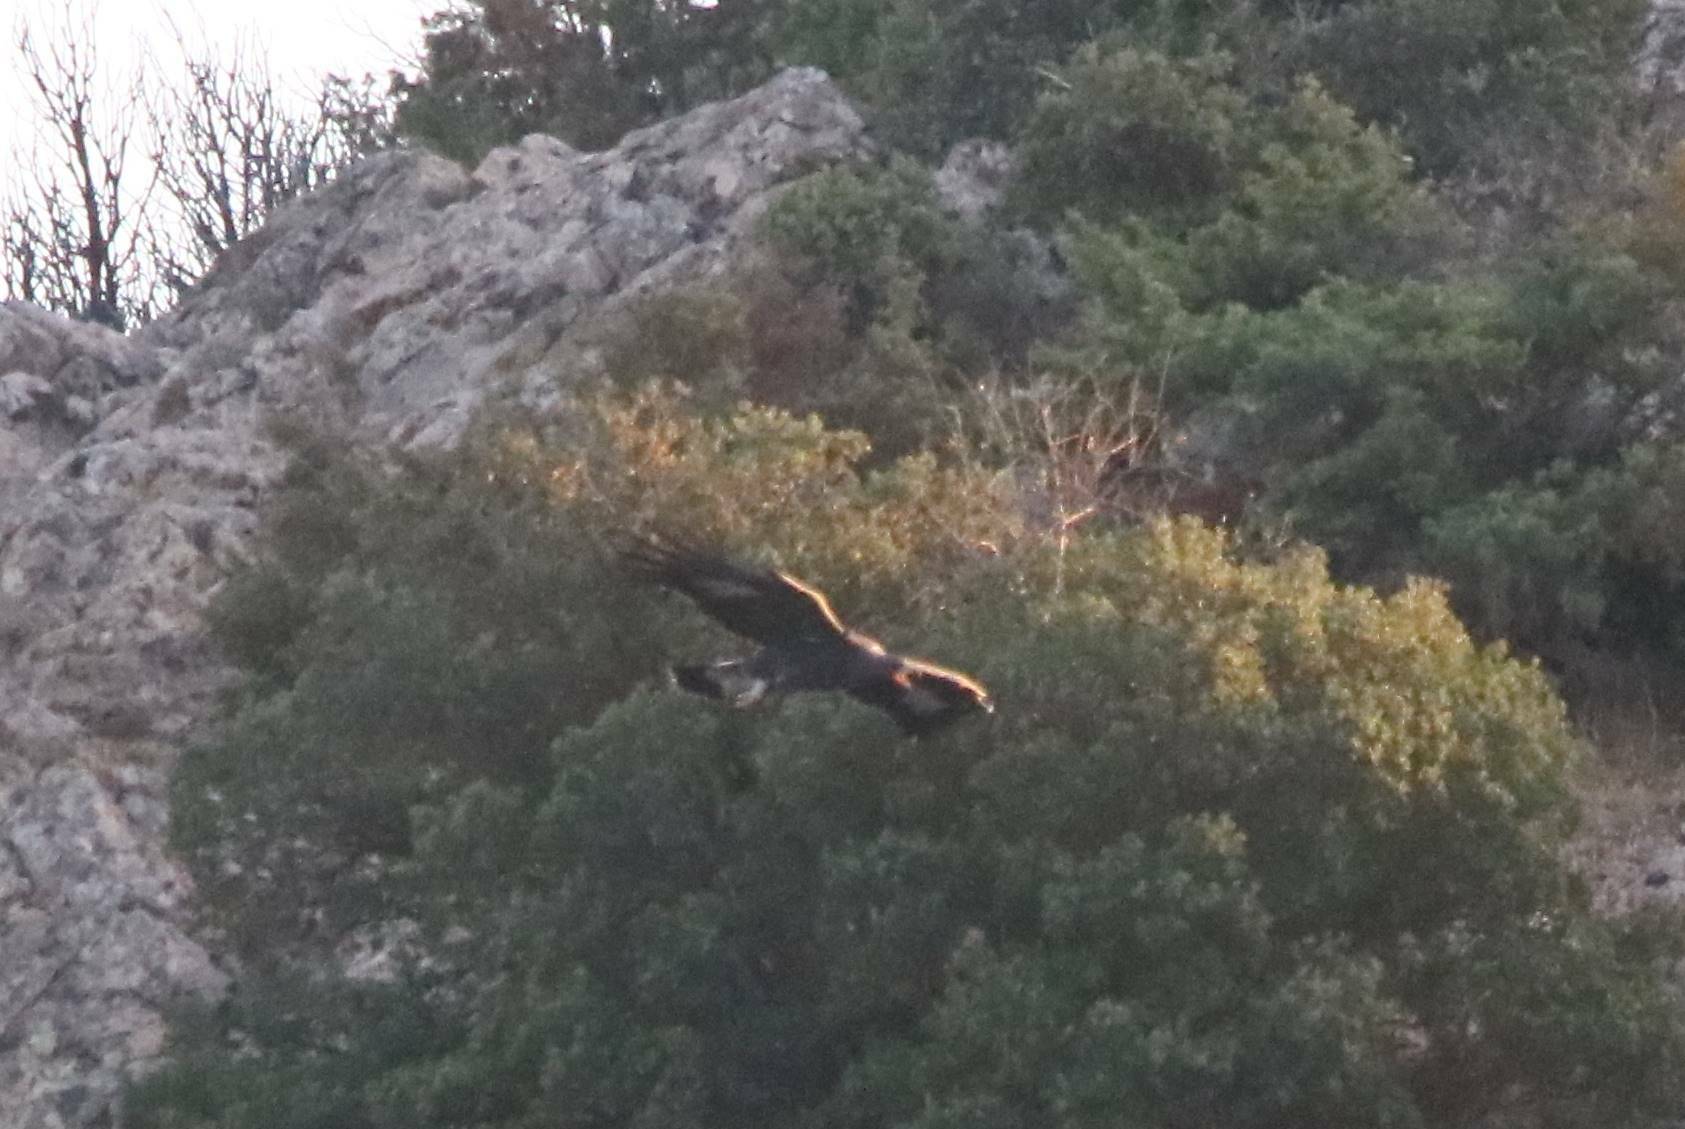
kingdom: Animalia
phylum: Chordata
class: Aves
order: Accipitriformes
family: Accipitridae
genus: Aquila
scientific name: Aquila chrysaetos
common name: Golden eagle
